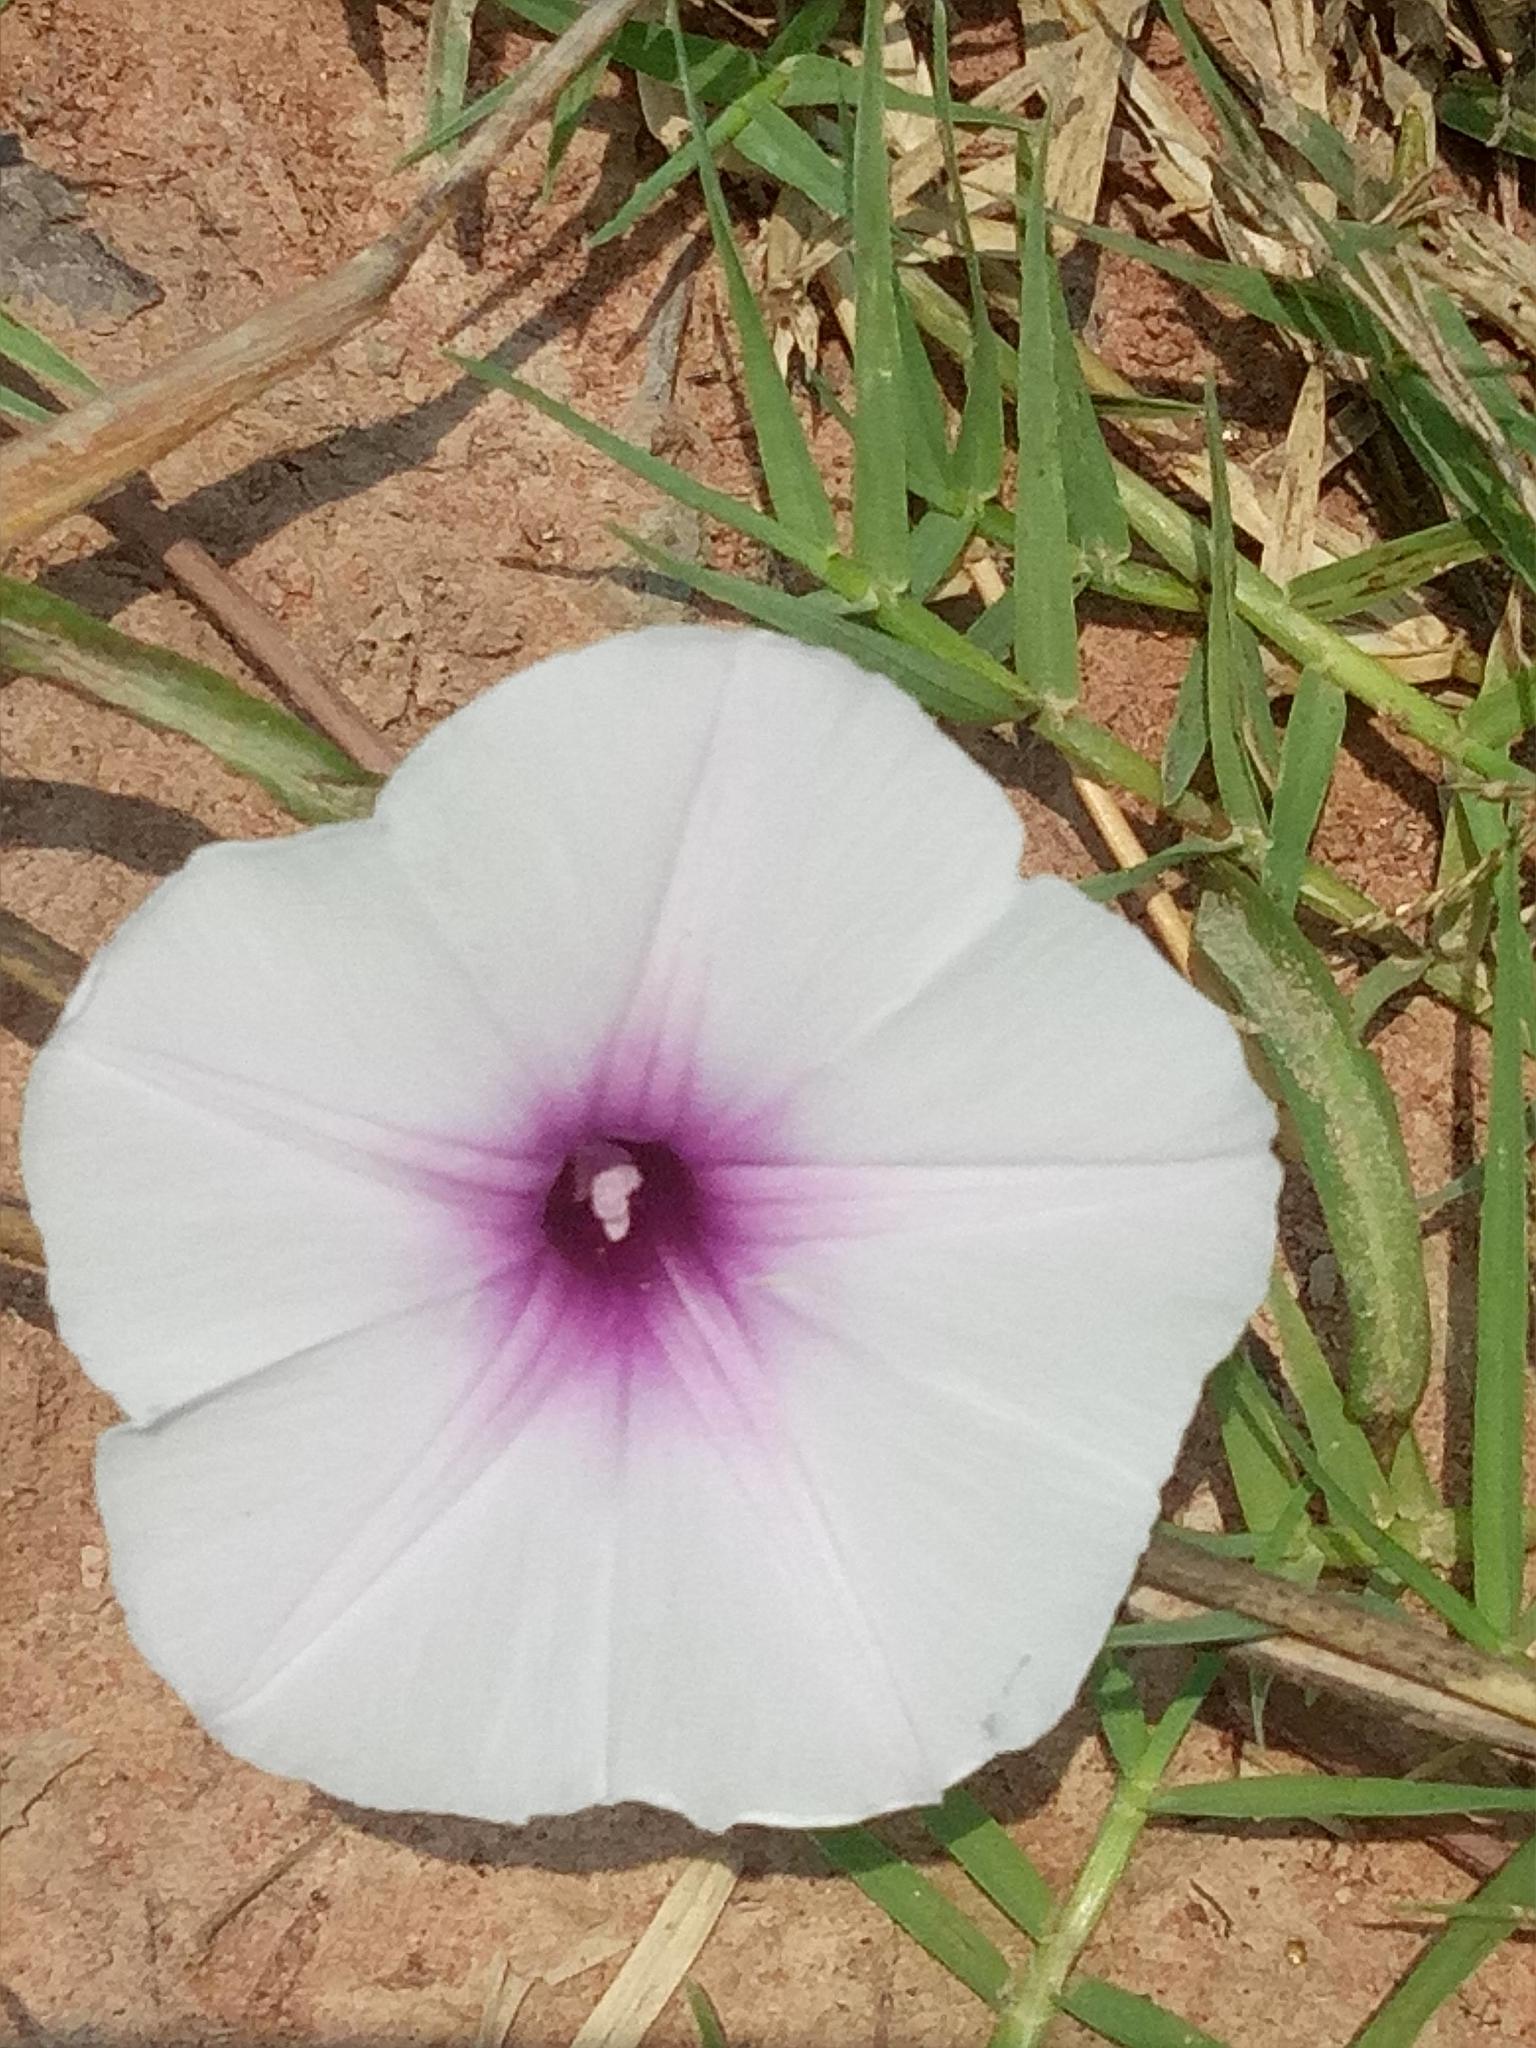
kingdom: Plantae
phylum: Tracheophyta
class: Magnoliopsida
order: Solanales
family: Convolvulaceae
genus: Ipomoea
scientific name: Ipomoea aquatica
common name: Swamp morning-glory
